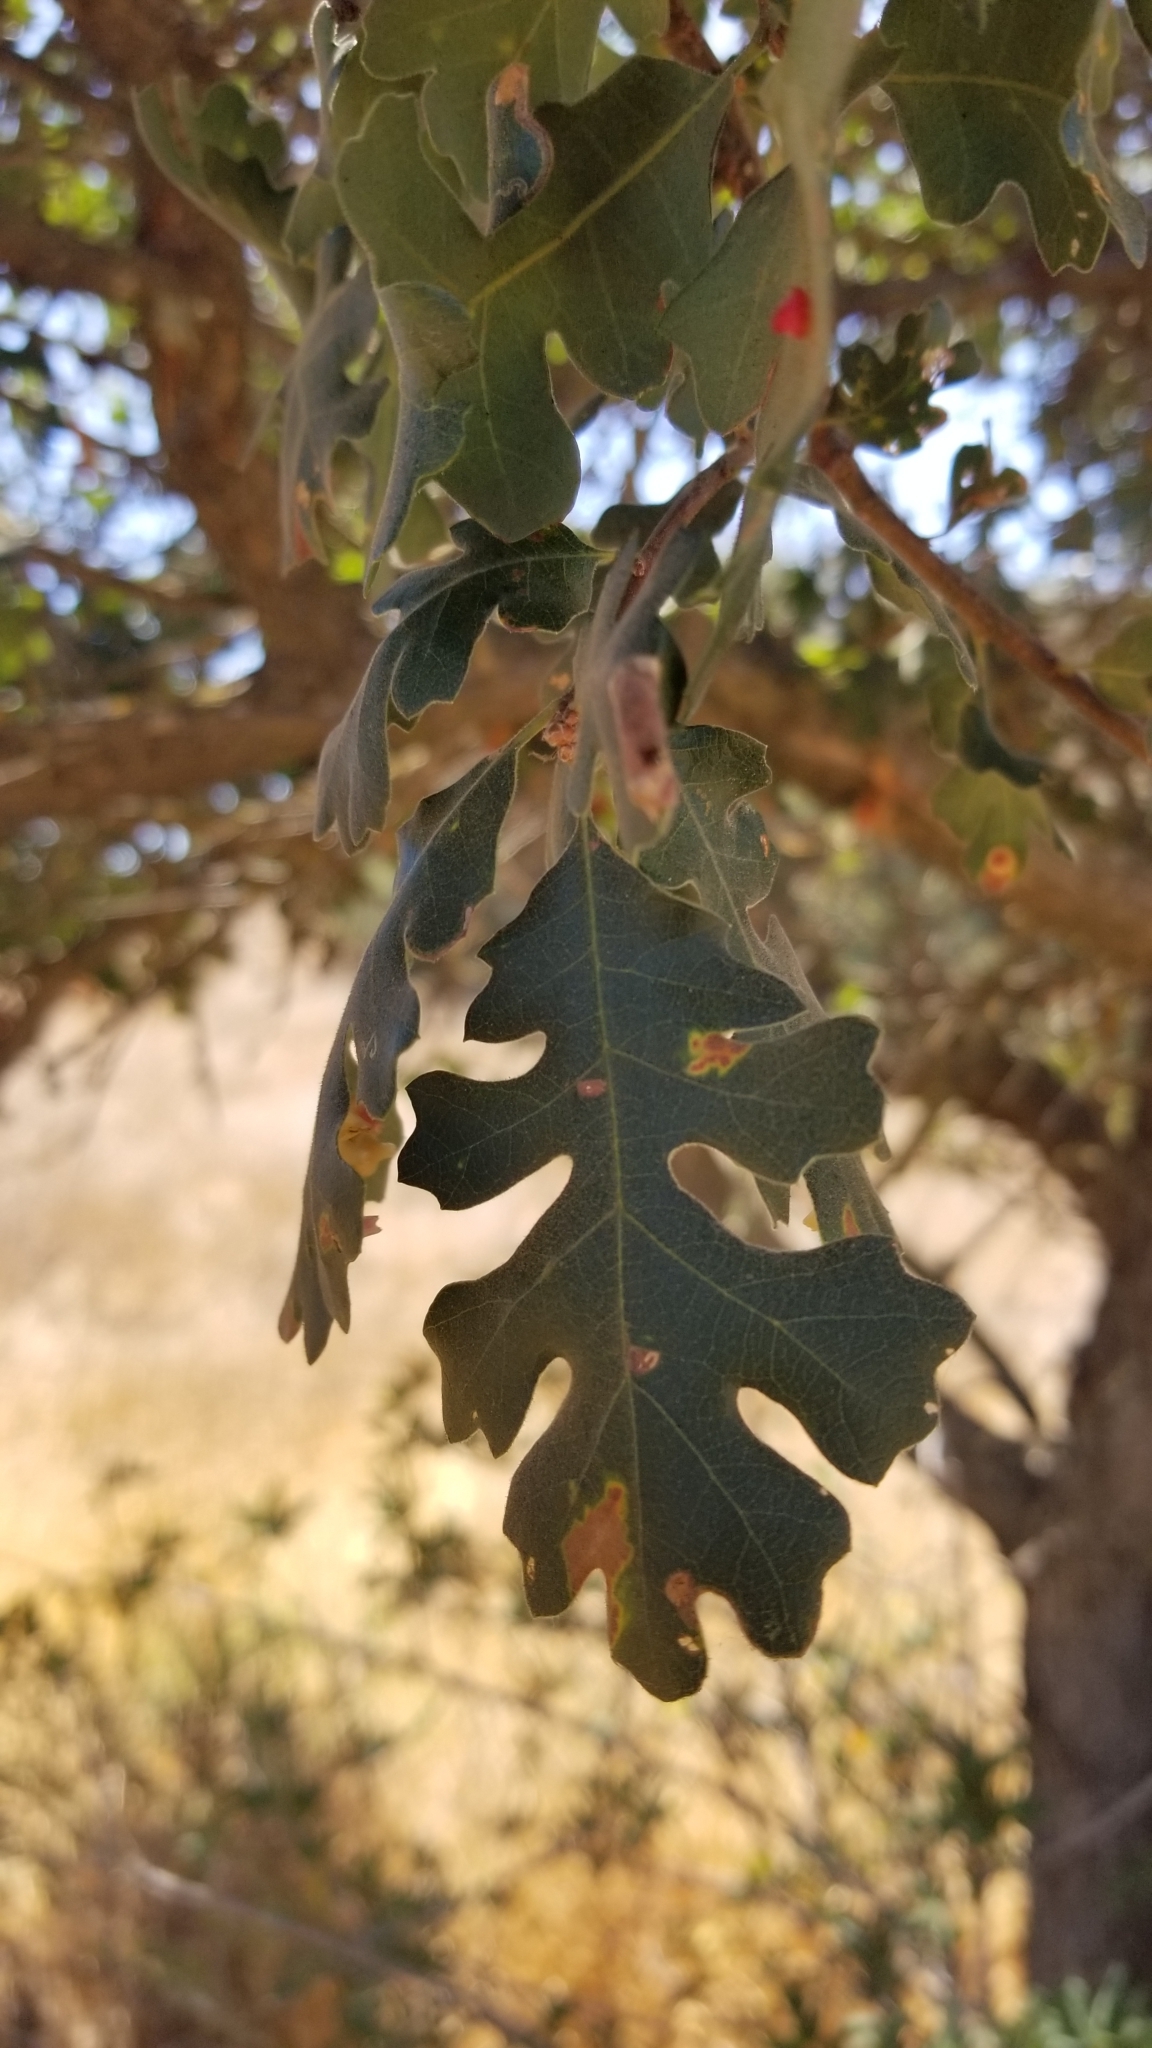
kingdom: Plantae
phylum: Tracheophyta
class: Magnoliopsida
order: Fagales
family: Fagaceae
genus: Quercus
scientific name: Quercus lobata
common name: Valley oak
